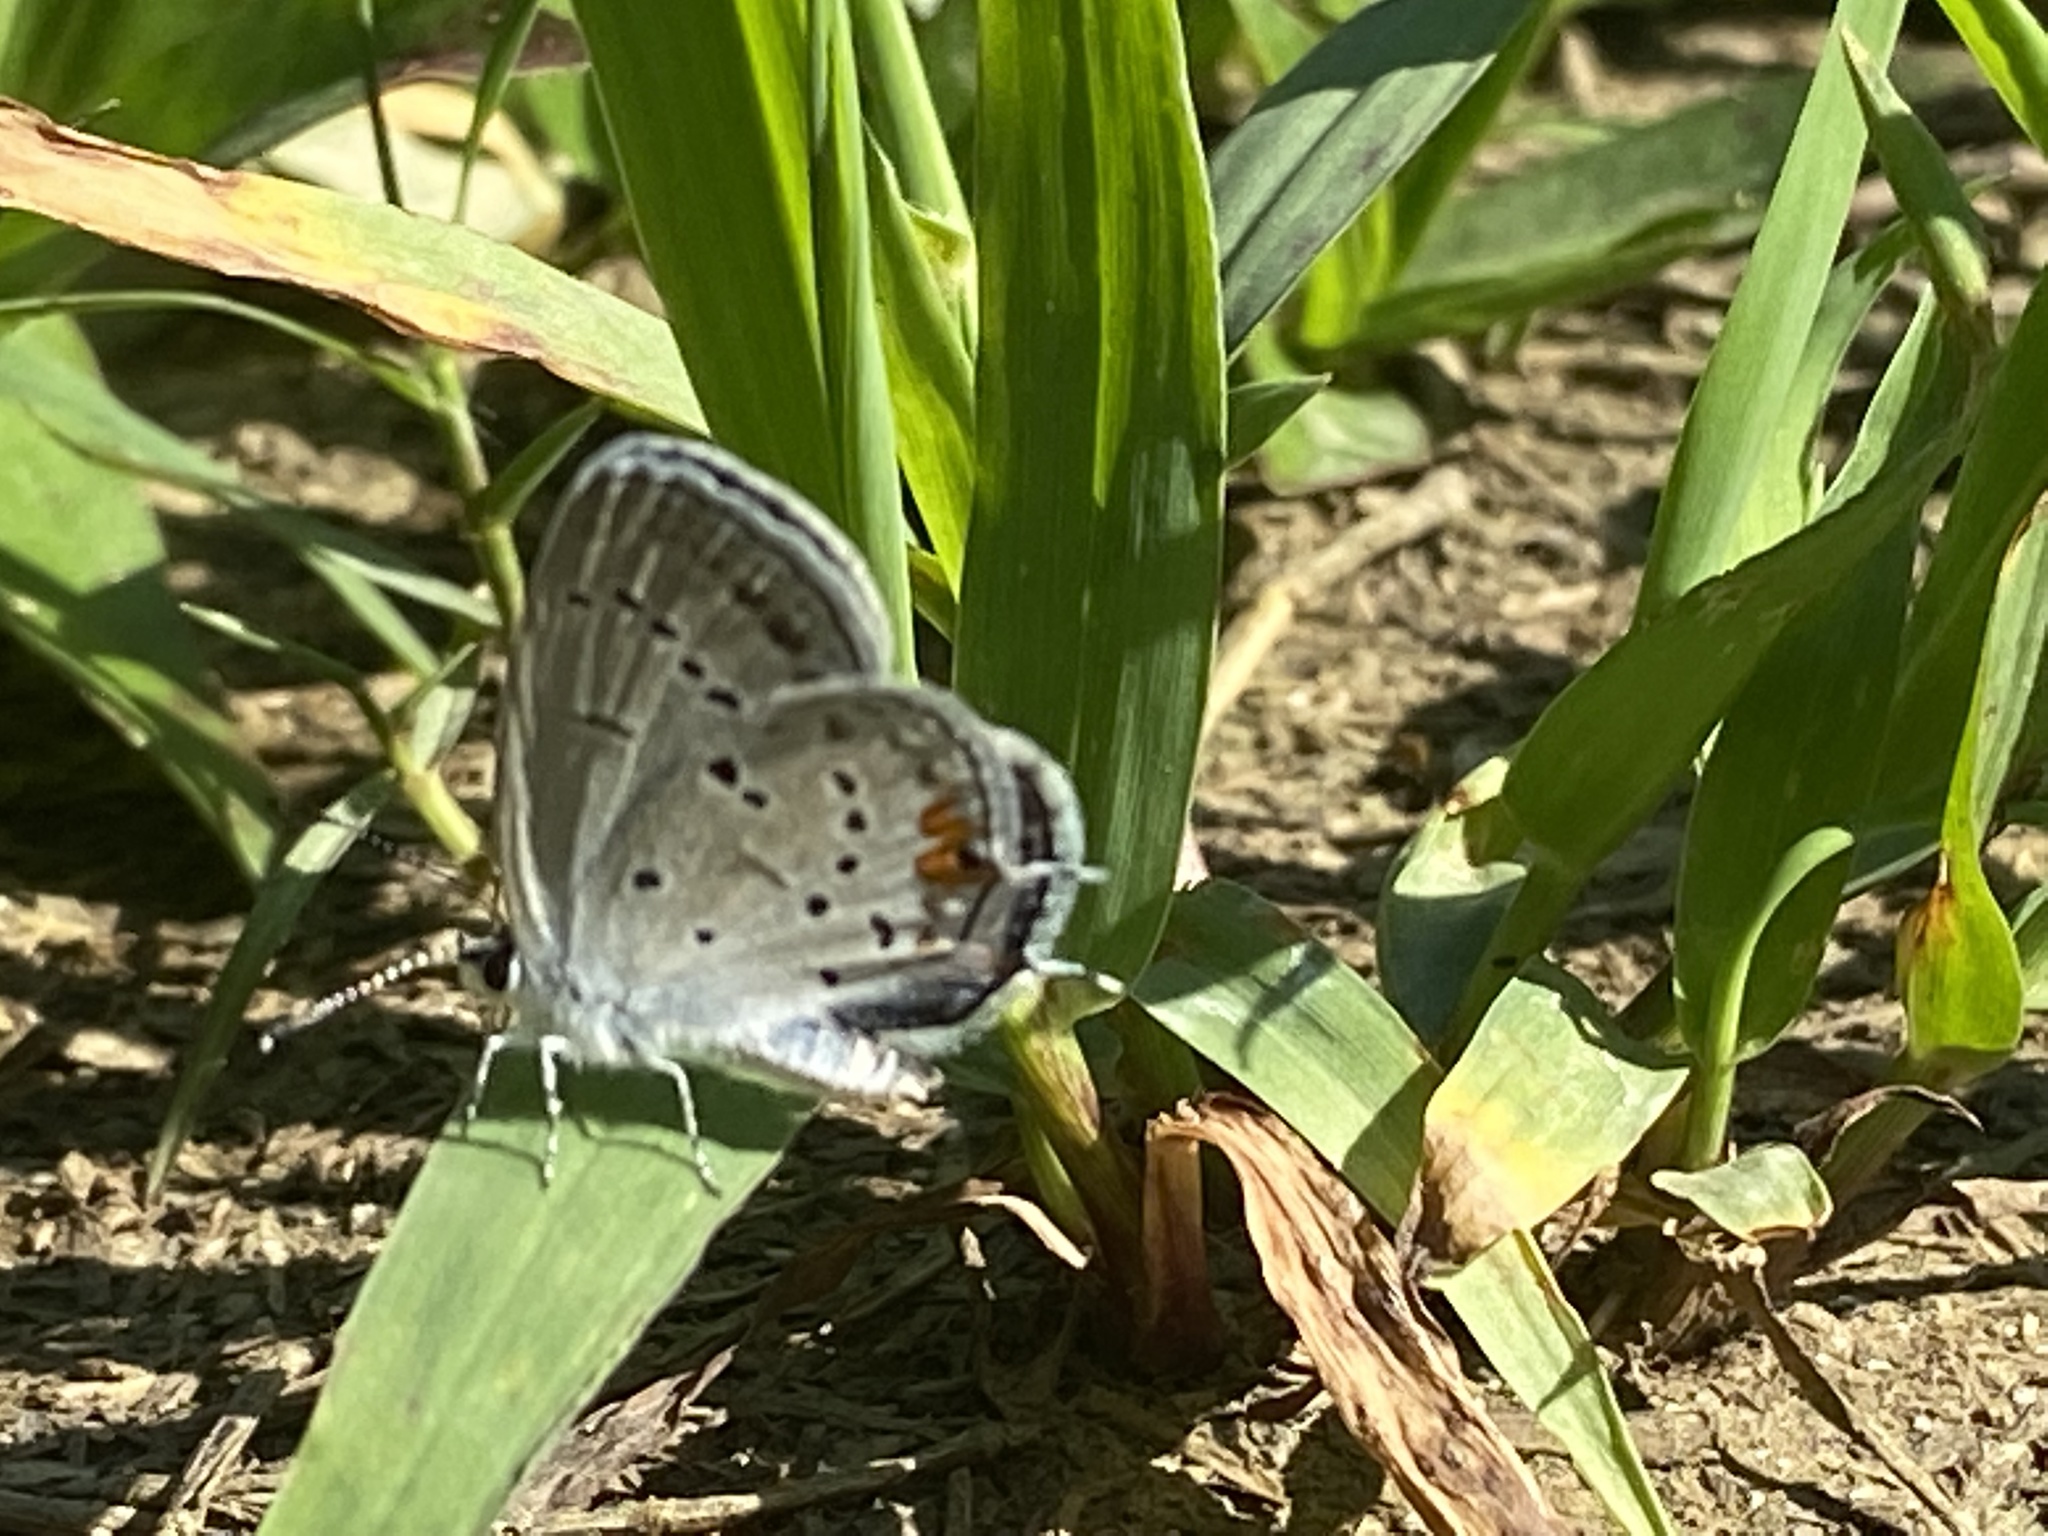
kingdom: Animalia
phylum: Arthropoda
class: Insecta
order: Lepidoptera
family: Lycaenidae
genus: Elkalyce
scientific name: Elkalyce comyntas
